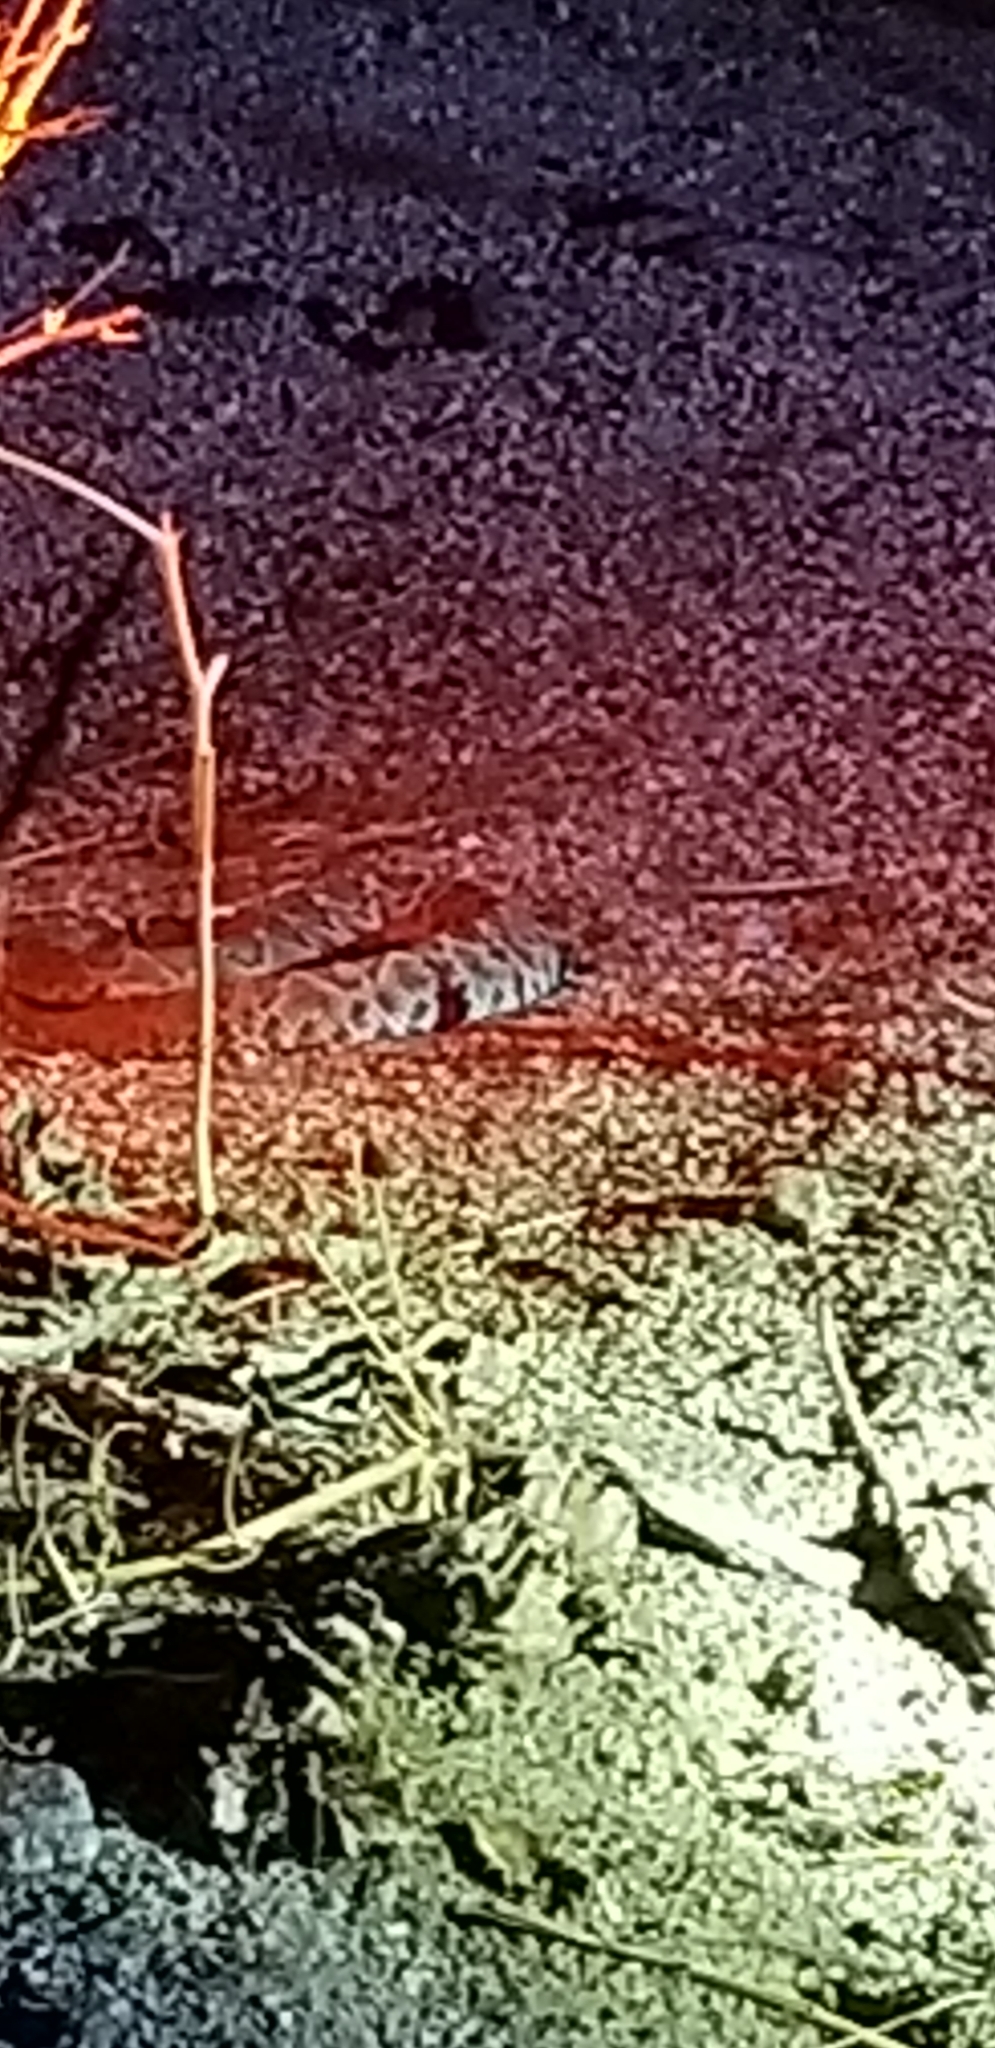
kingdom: Animalia
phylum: Chordata
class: Squamata
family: Viperidae
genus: Crotalus
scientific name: Crotalus ruber
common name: Red diamond rattlesnake
